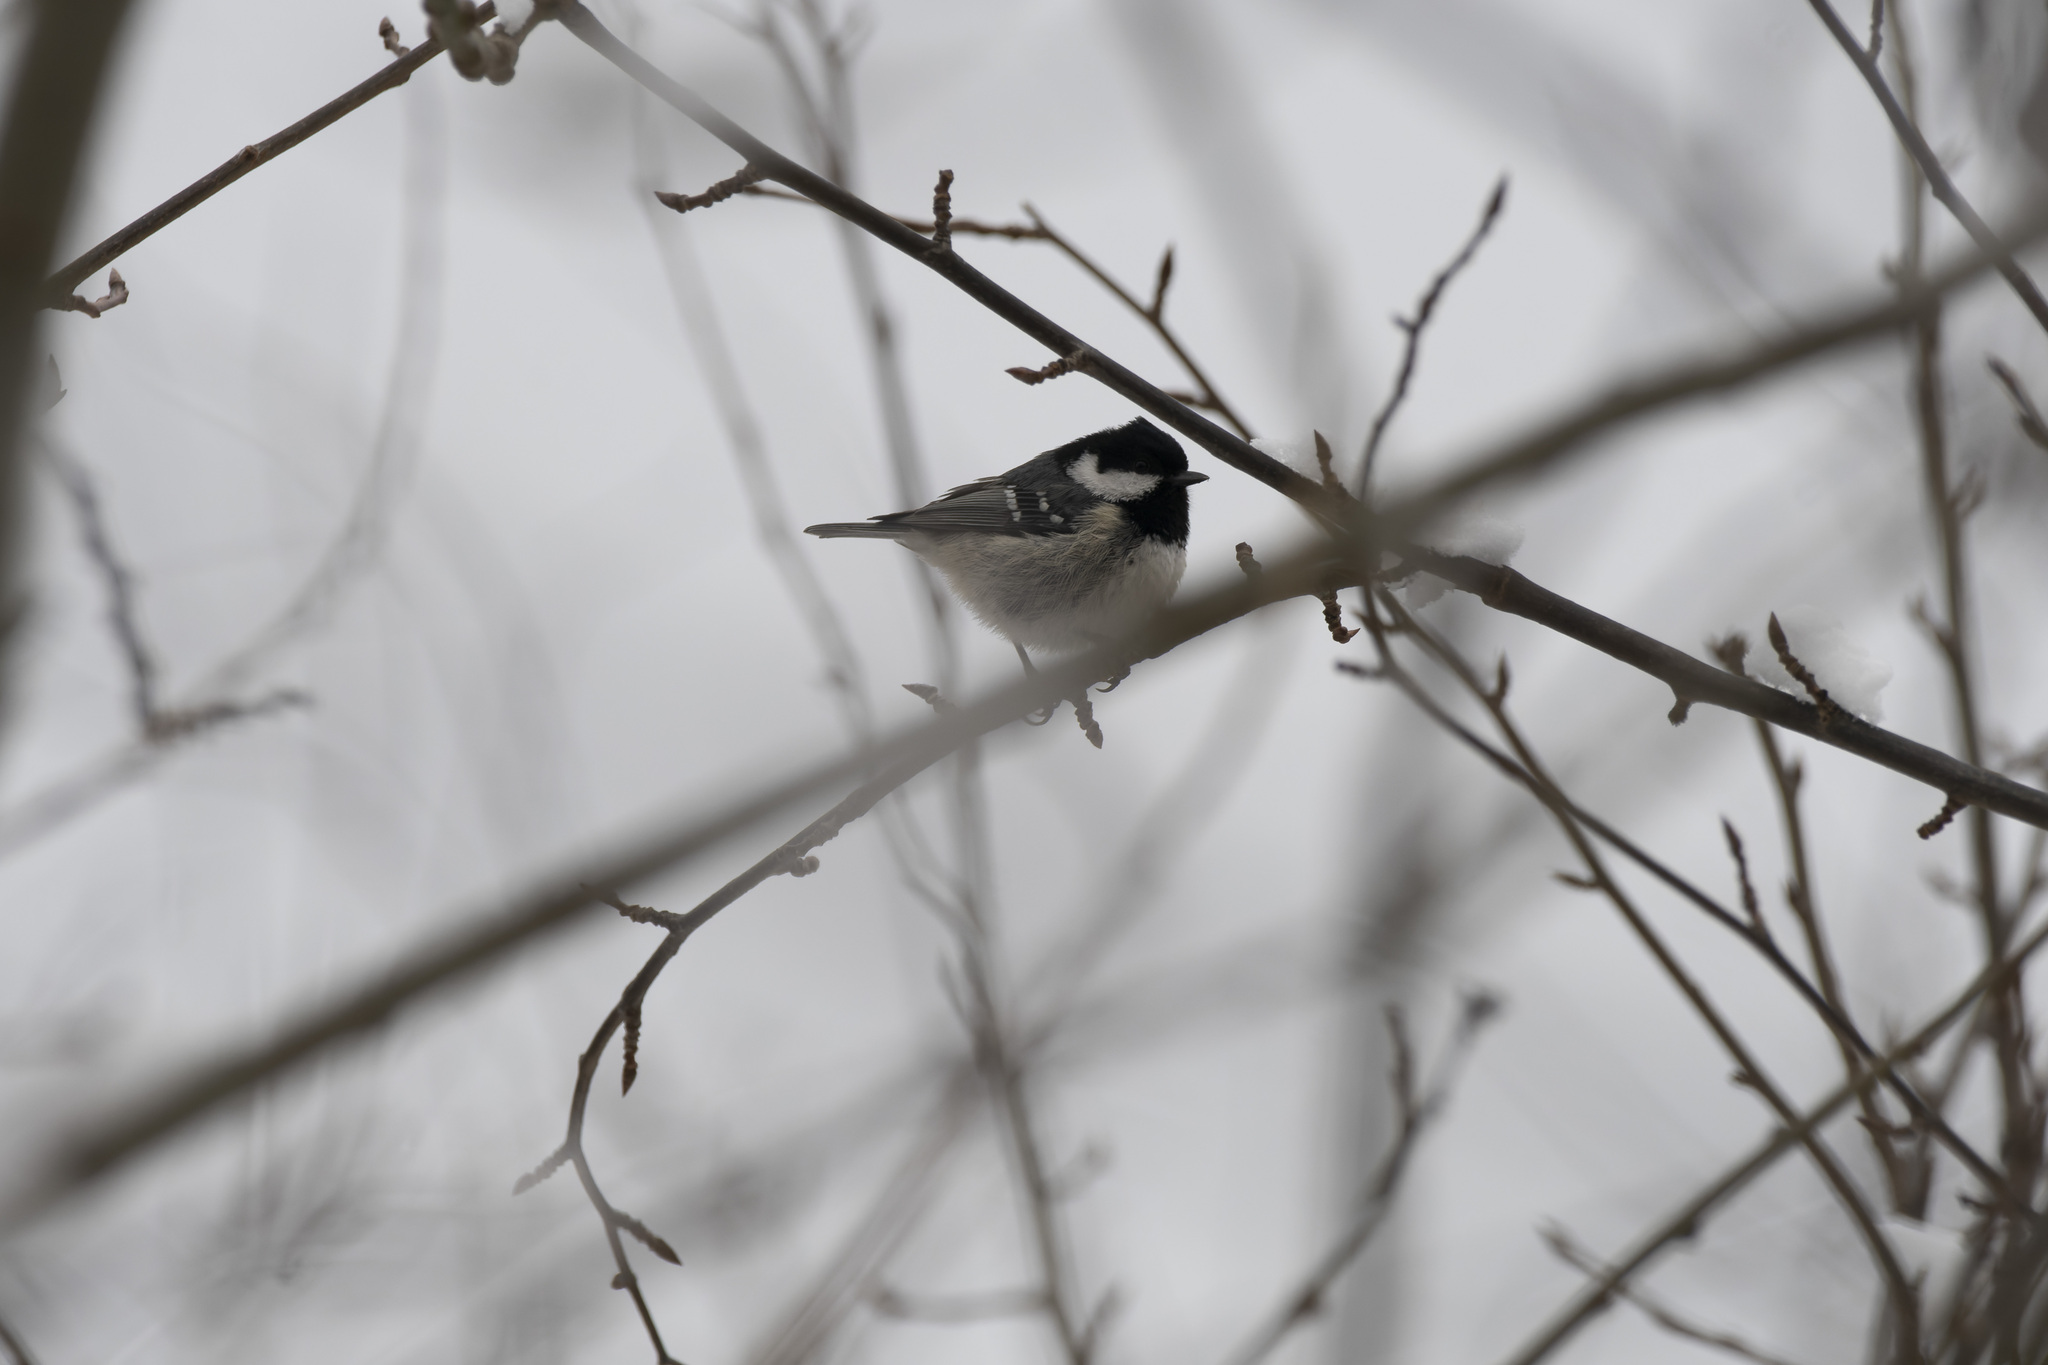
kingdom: Animalia
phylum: Chordata
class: Aves
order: Passeriformes
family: Paridae
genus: Periparus
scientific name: Periparus ater
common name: Coal tit
